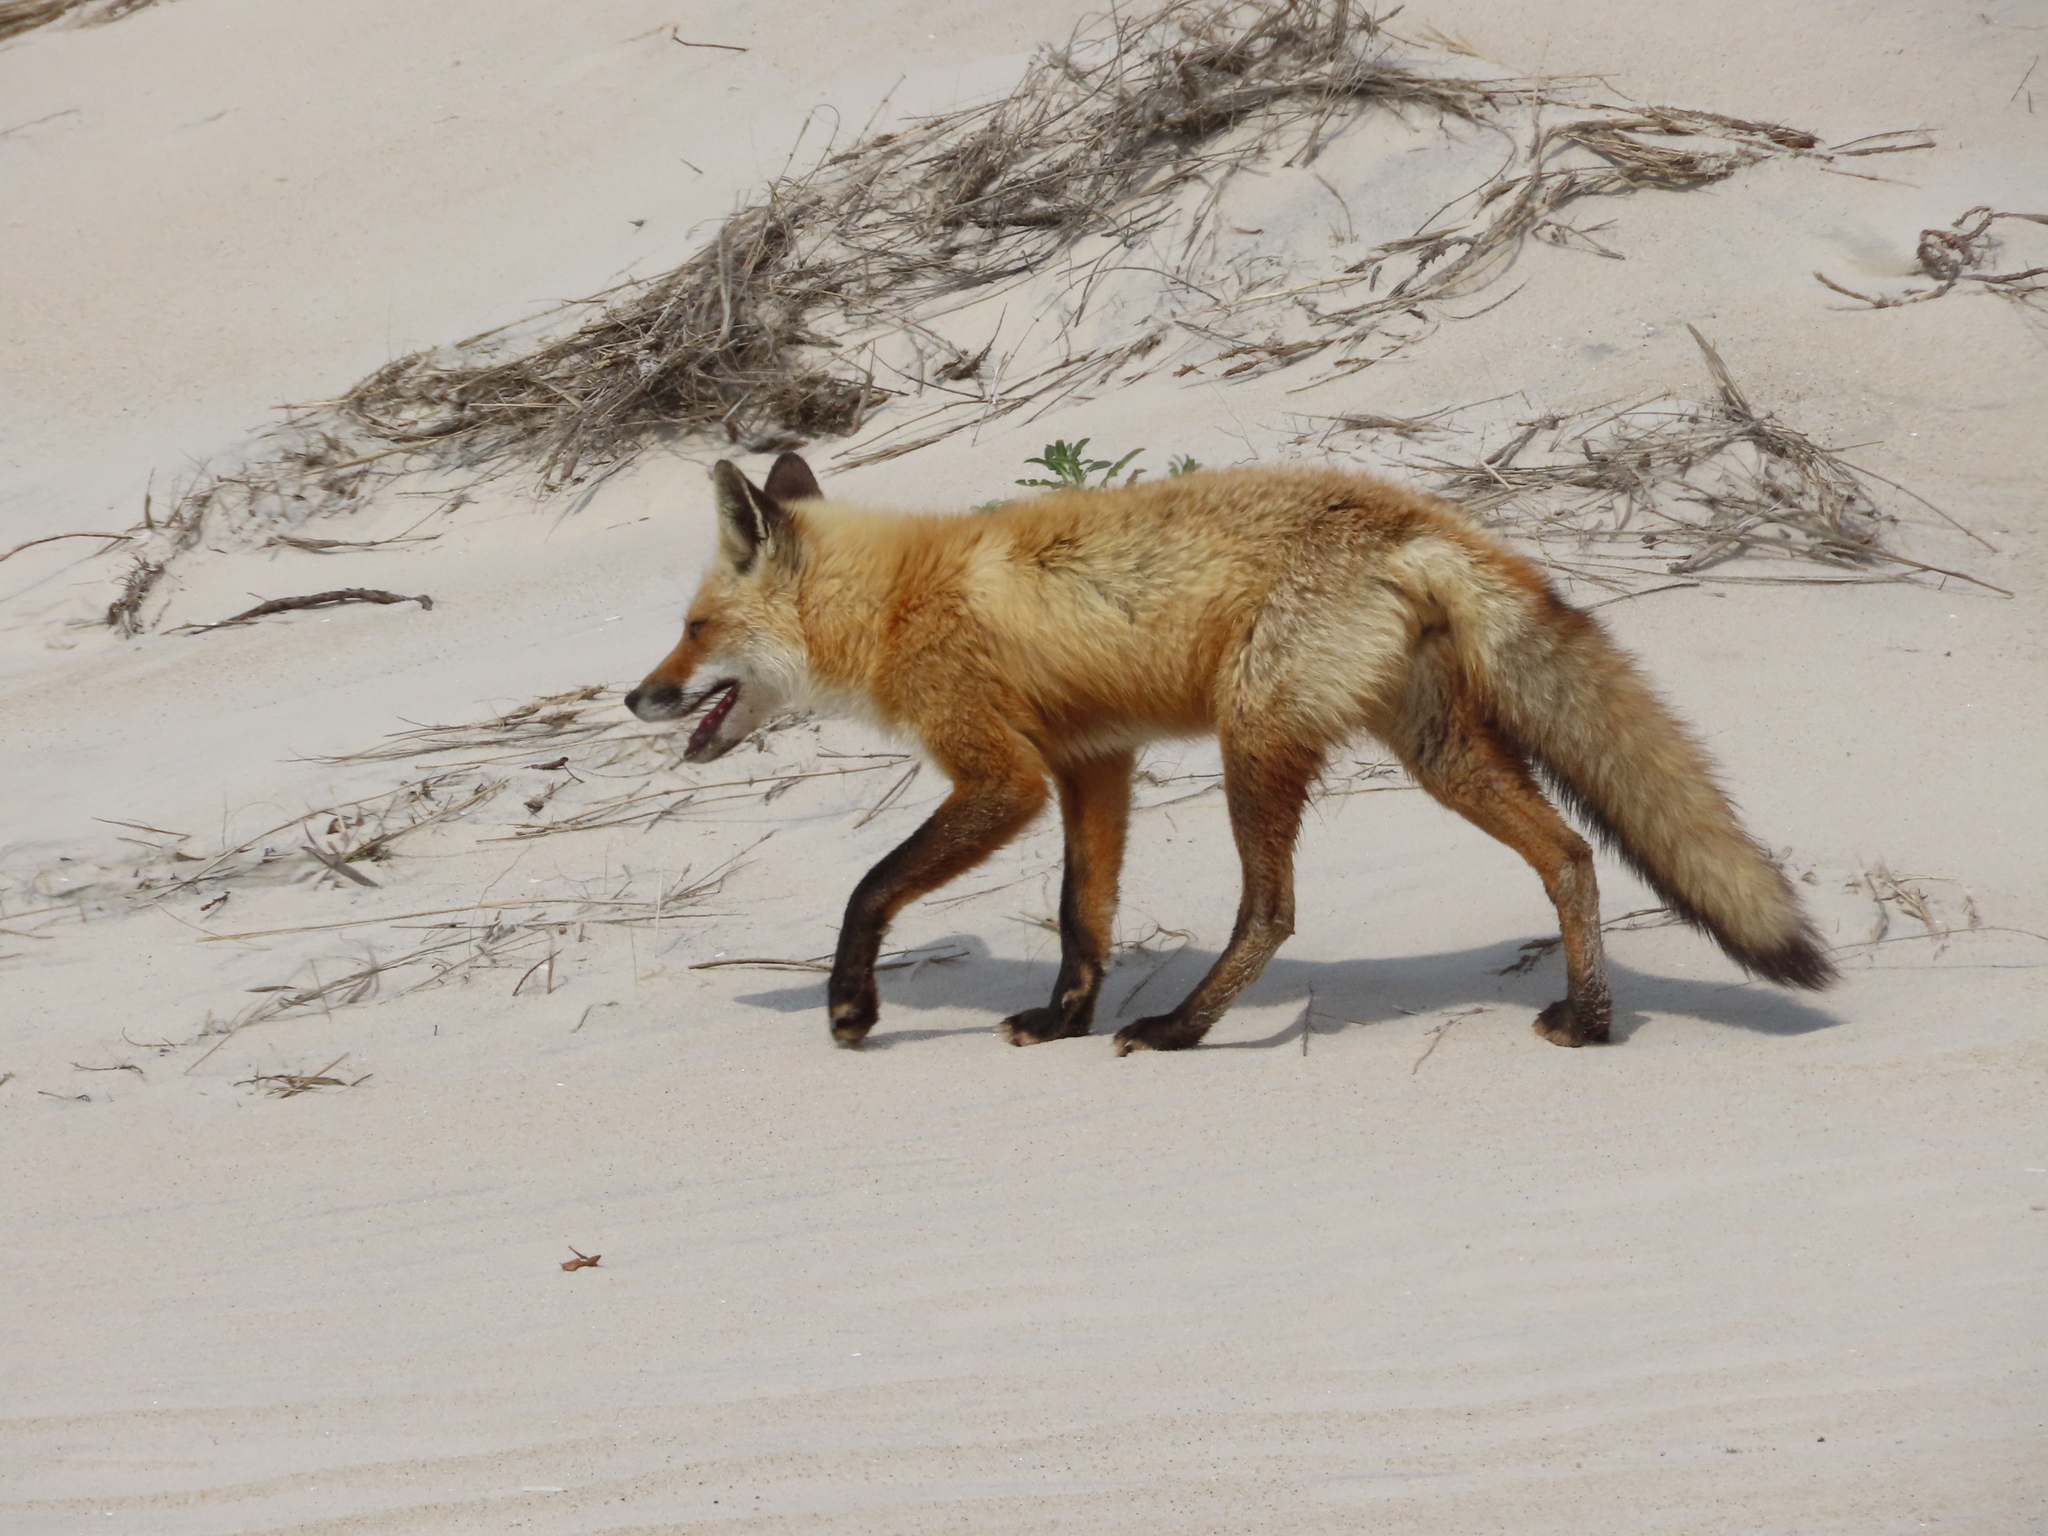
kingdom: Animalia
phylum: Chordata
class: Mammalia
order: Carnivora
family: Canidae
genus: Vulpes
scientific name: Vulpes vulpes
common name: Red fox
